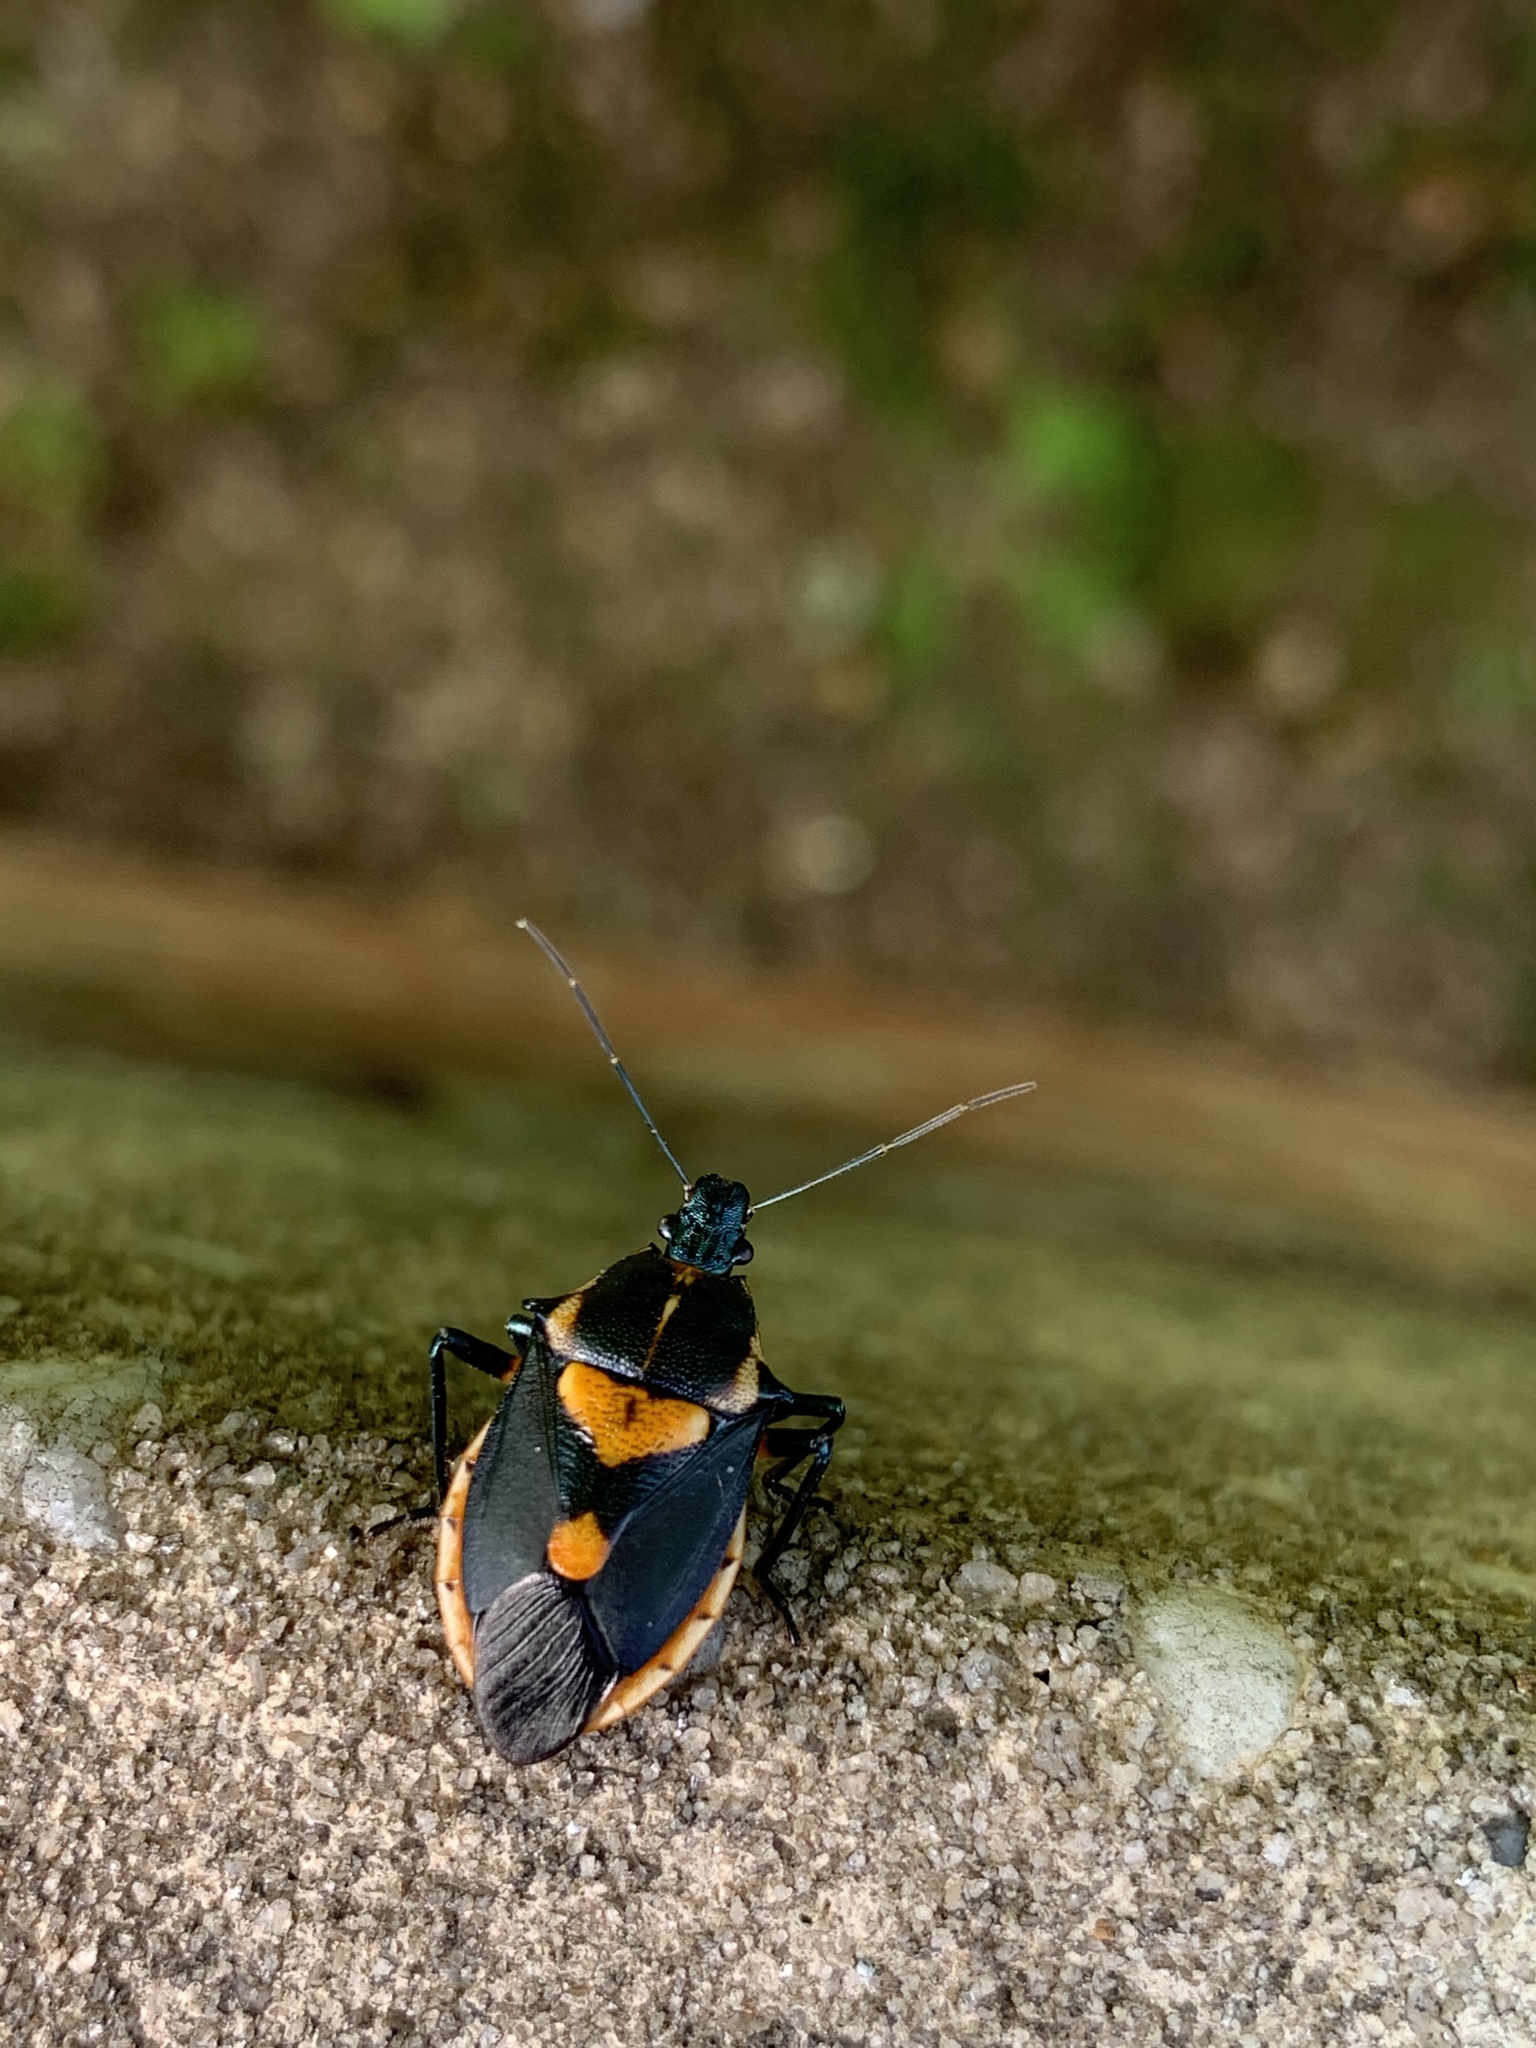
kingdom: Animalia
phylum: Arthropoda
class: Insecta
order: Hemiptera
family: Pentatomidae
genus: Euthyrhynchus
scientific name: Euthyrhynchus floridanus
